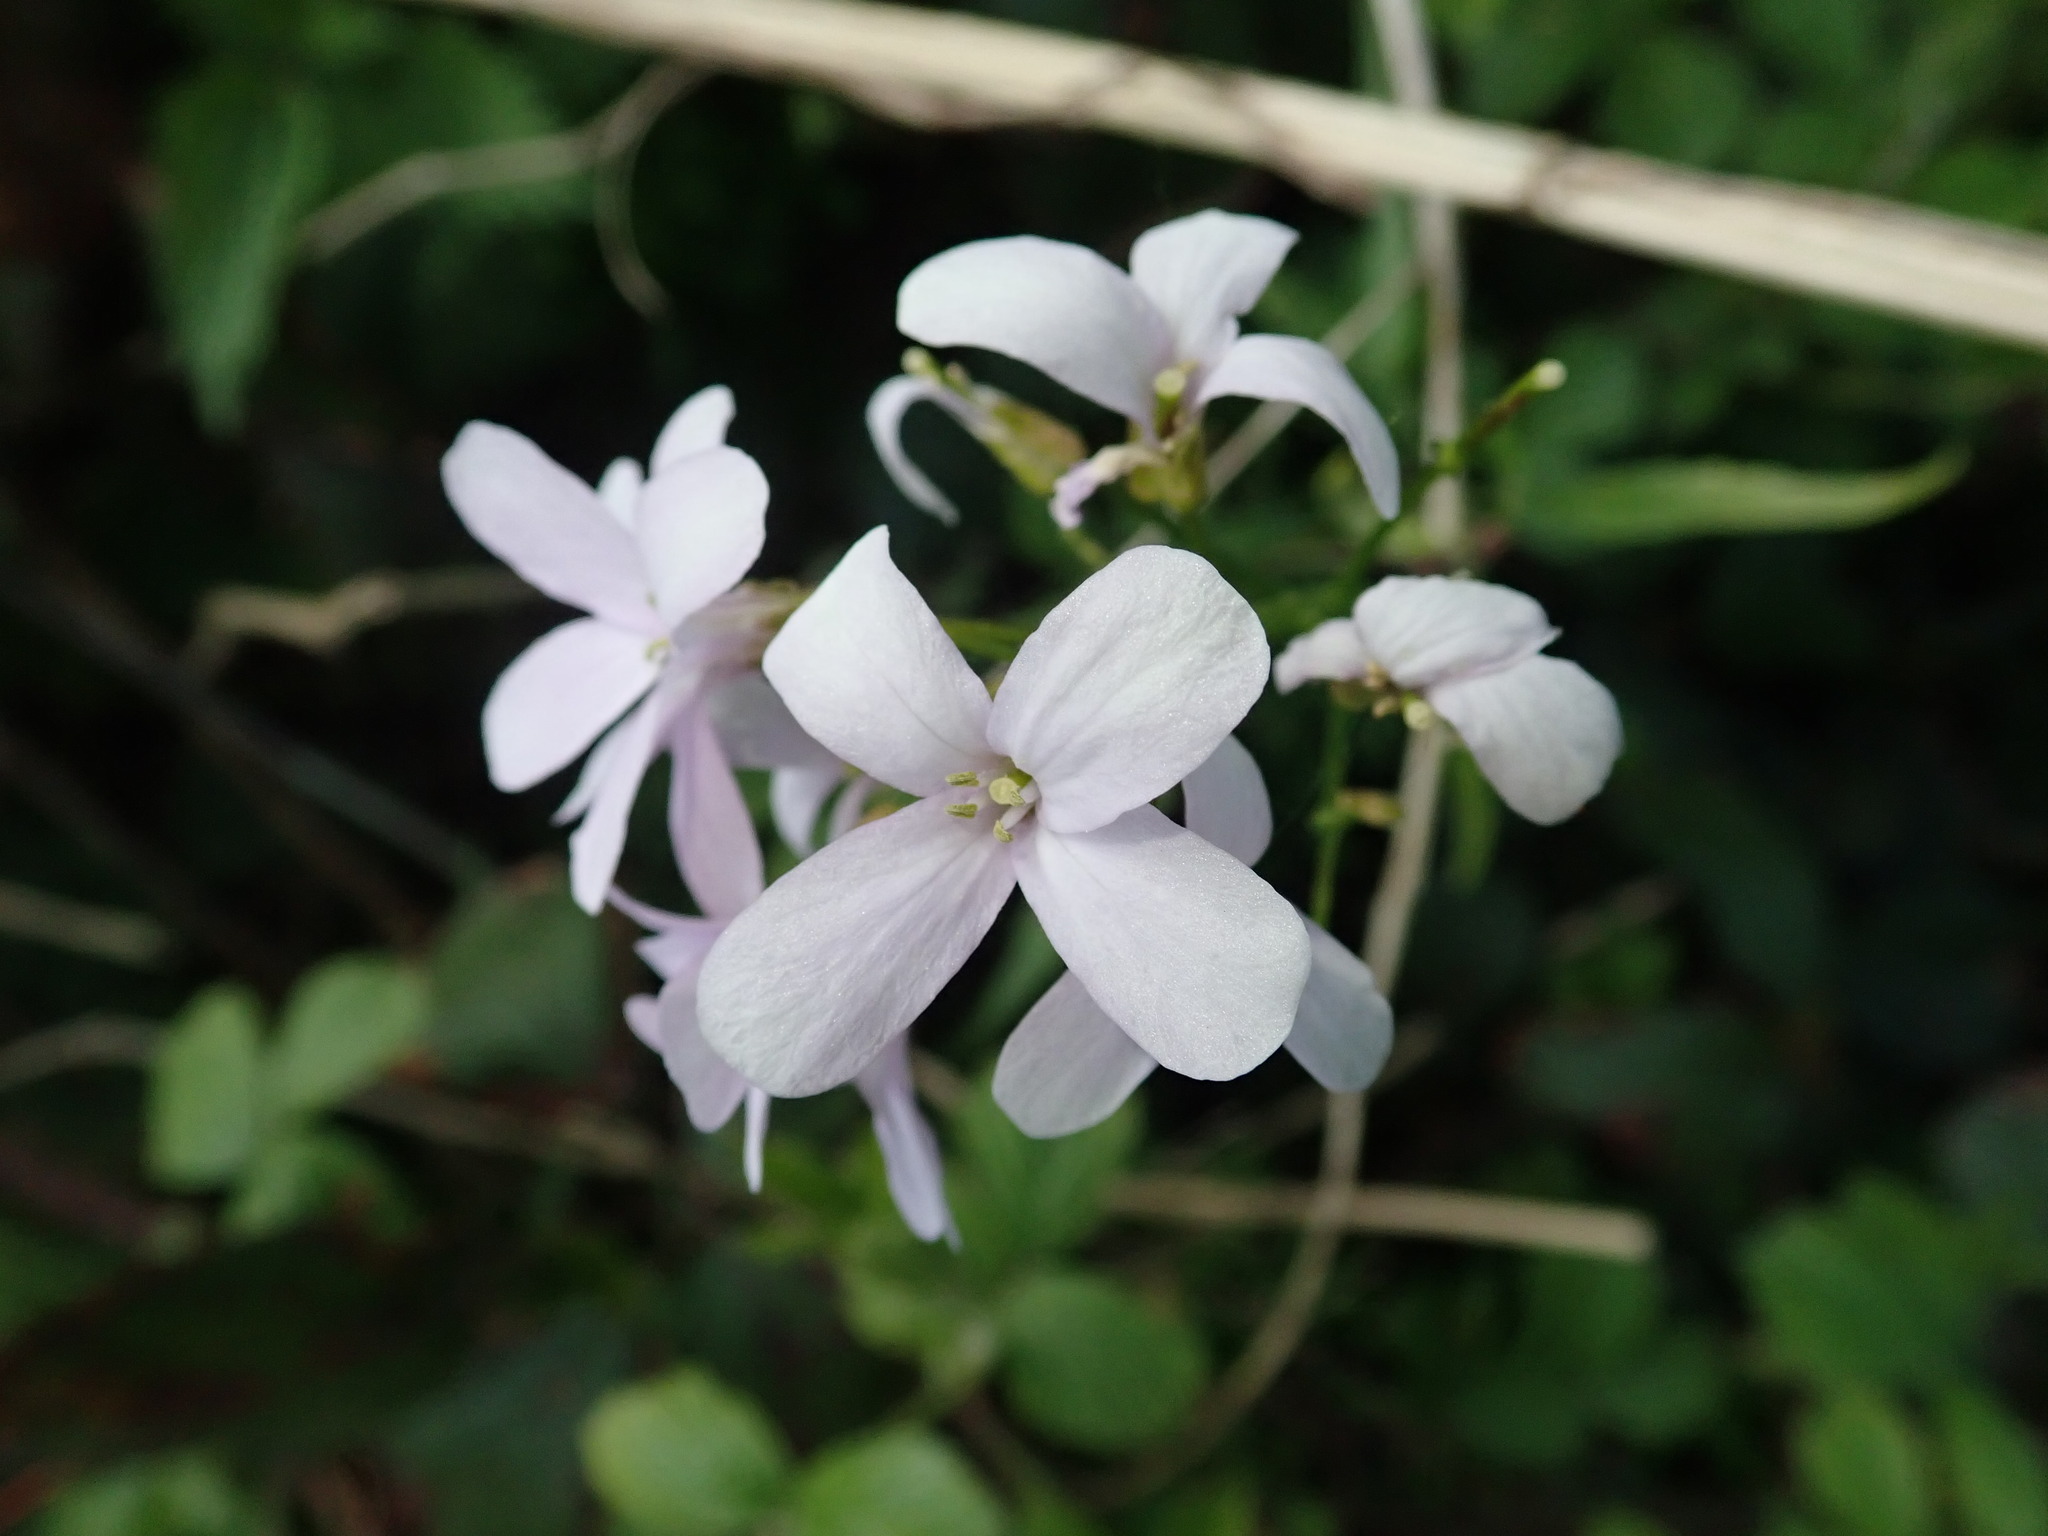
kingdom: Plantae
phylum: Tracheophyta
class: Magnoliopsida
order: Brassicales
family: Brassicaceae
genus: Cardamine
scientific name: Cardamine bulbifera
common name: Coralroot bittercress
